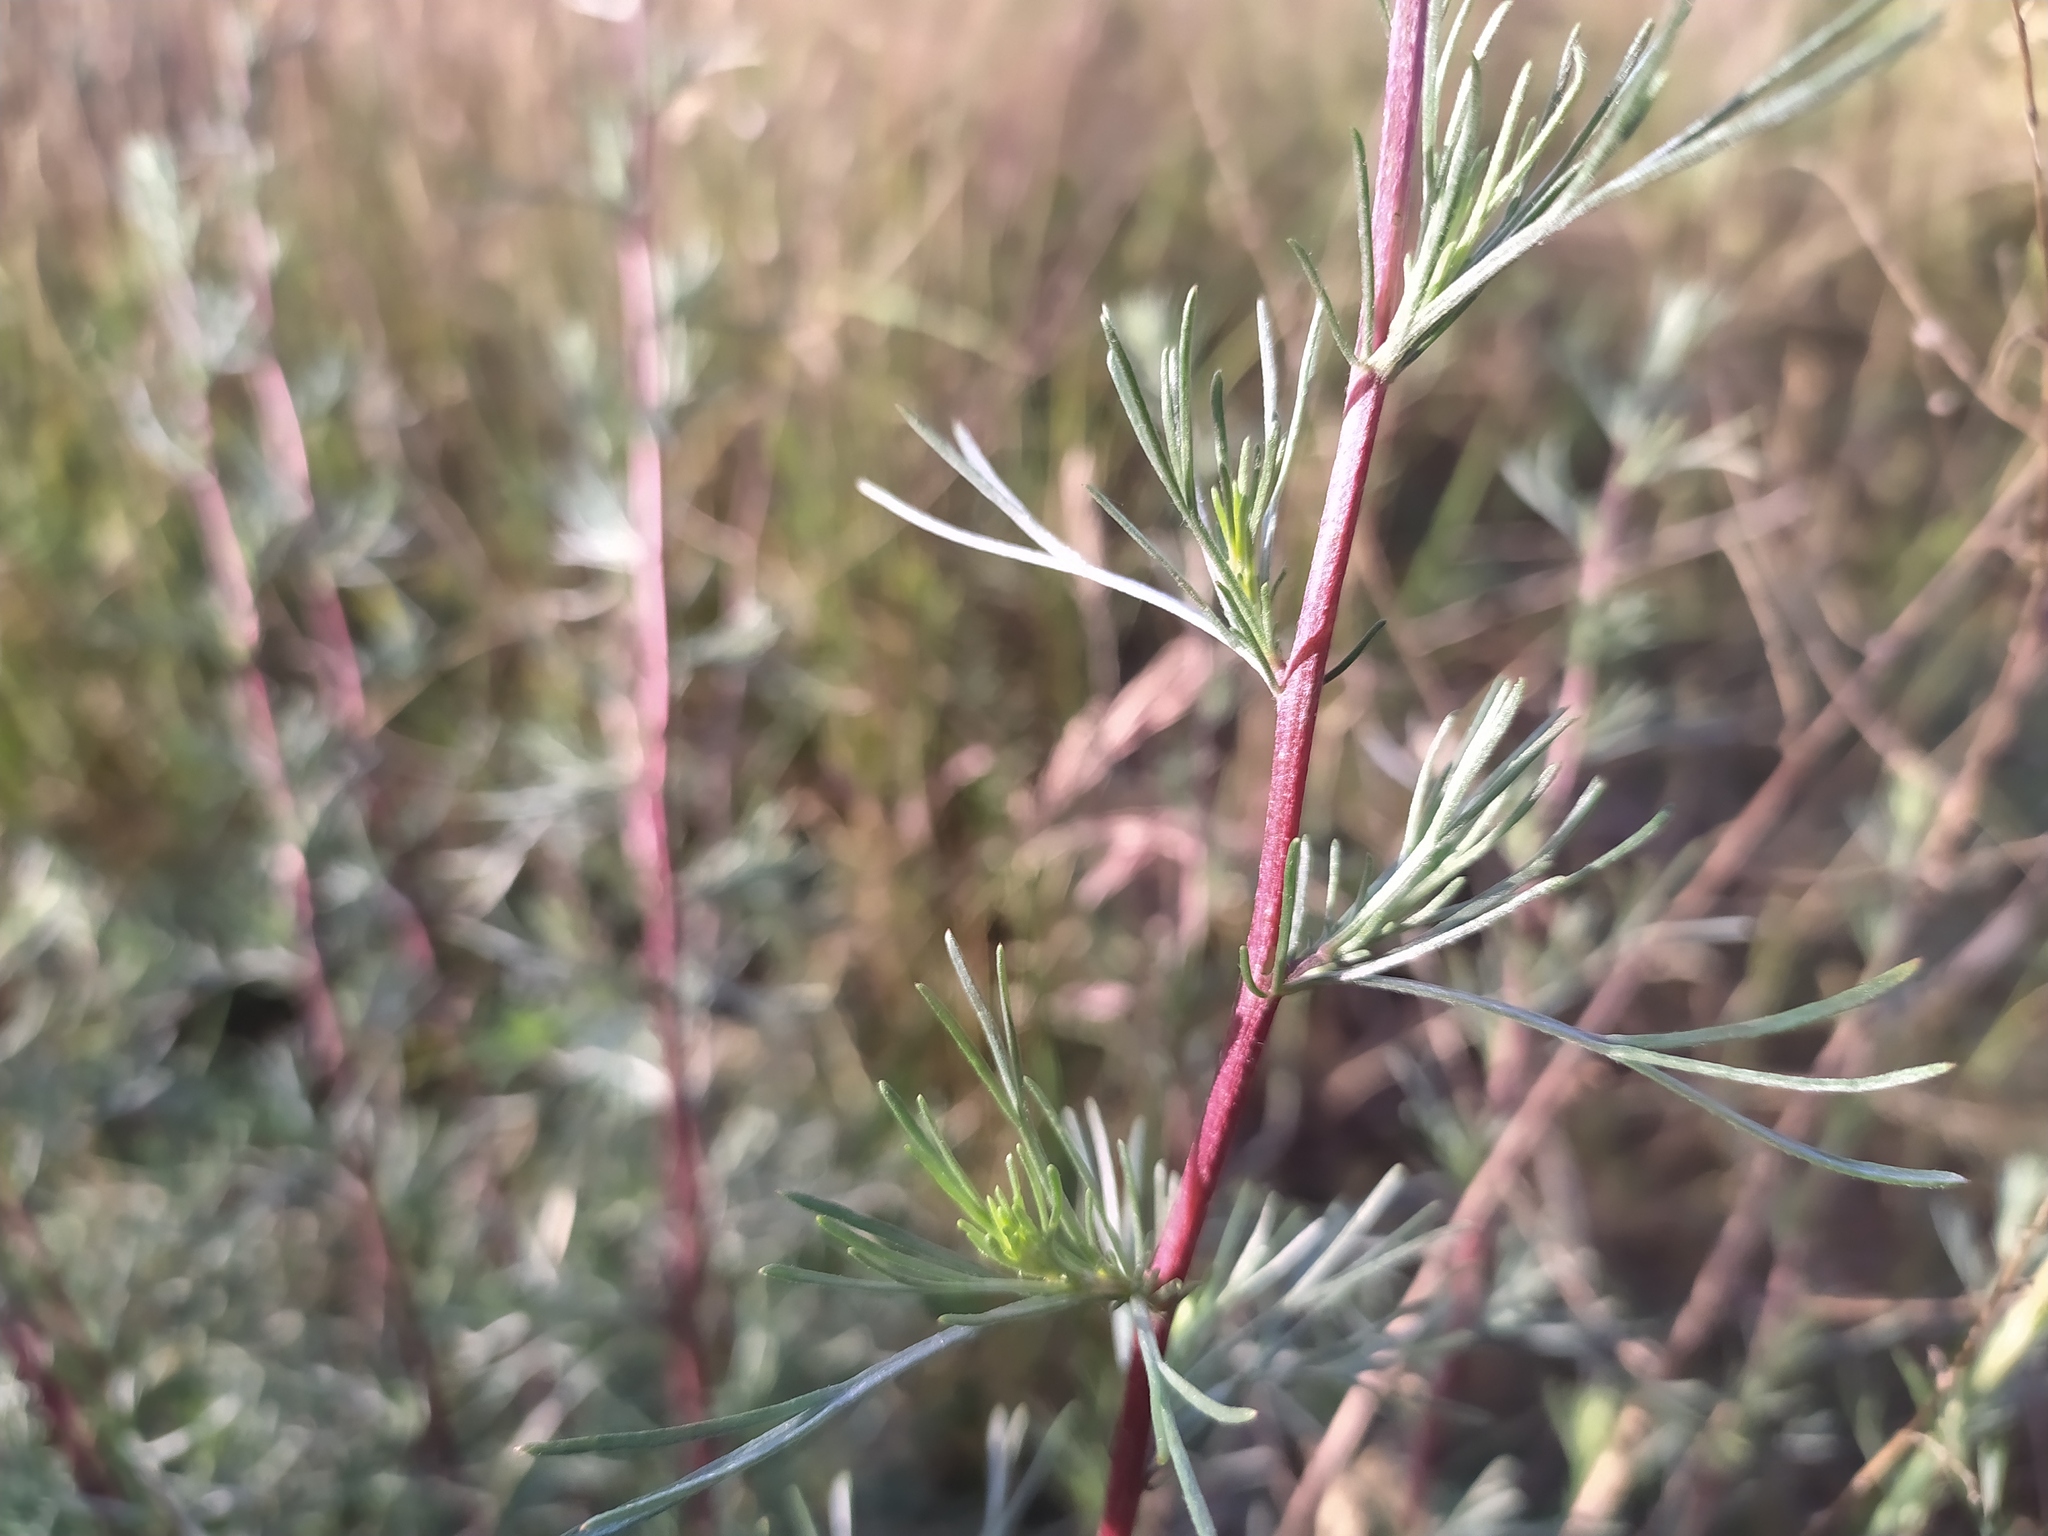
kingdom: Plantae
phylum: Tracheophyta
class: Magnoliopsida
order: Asterales
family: Asteraceae
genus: Artemisia
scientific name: Artemisia campestris
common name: Field wormwood
